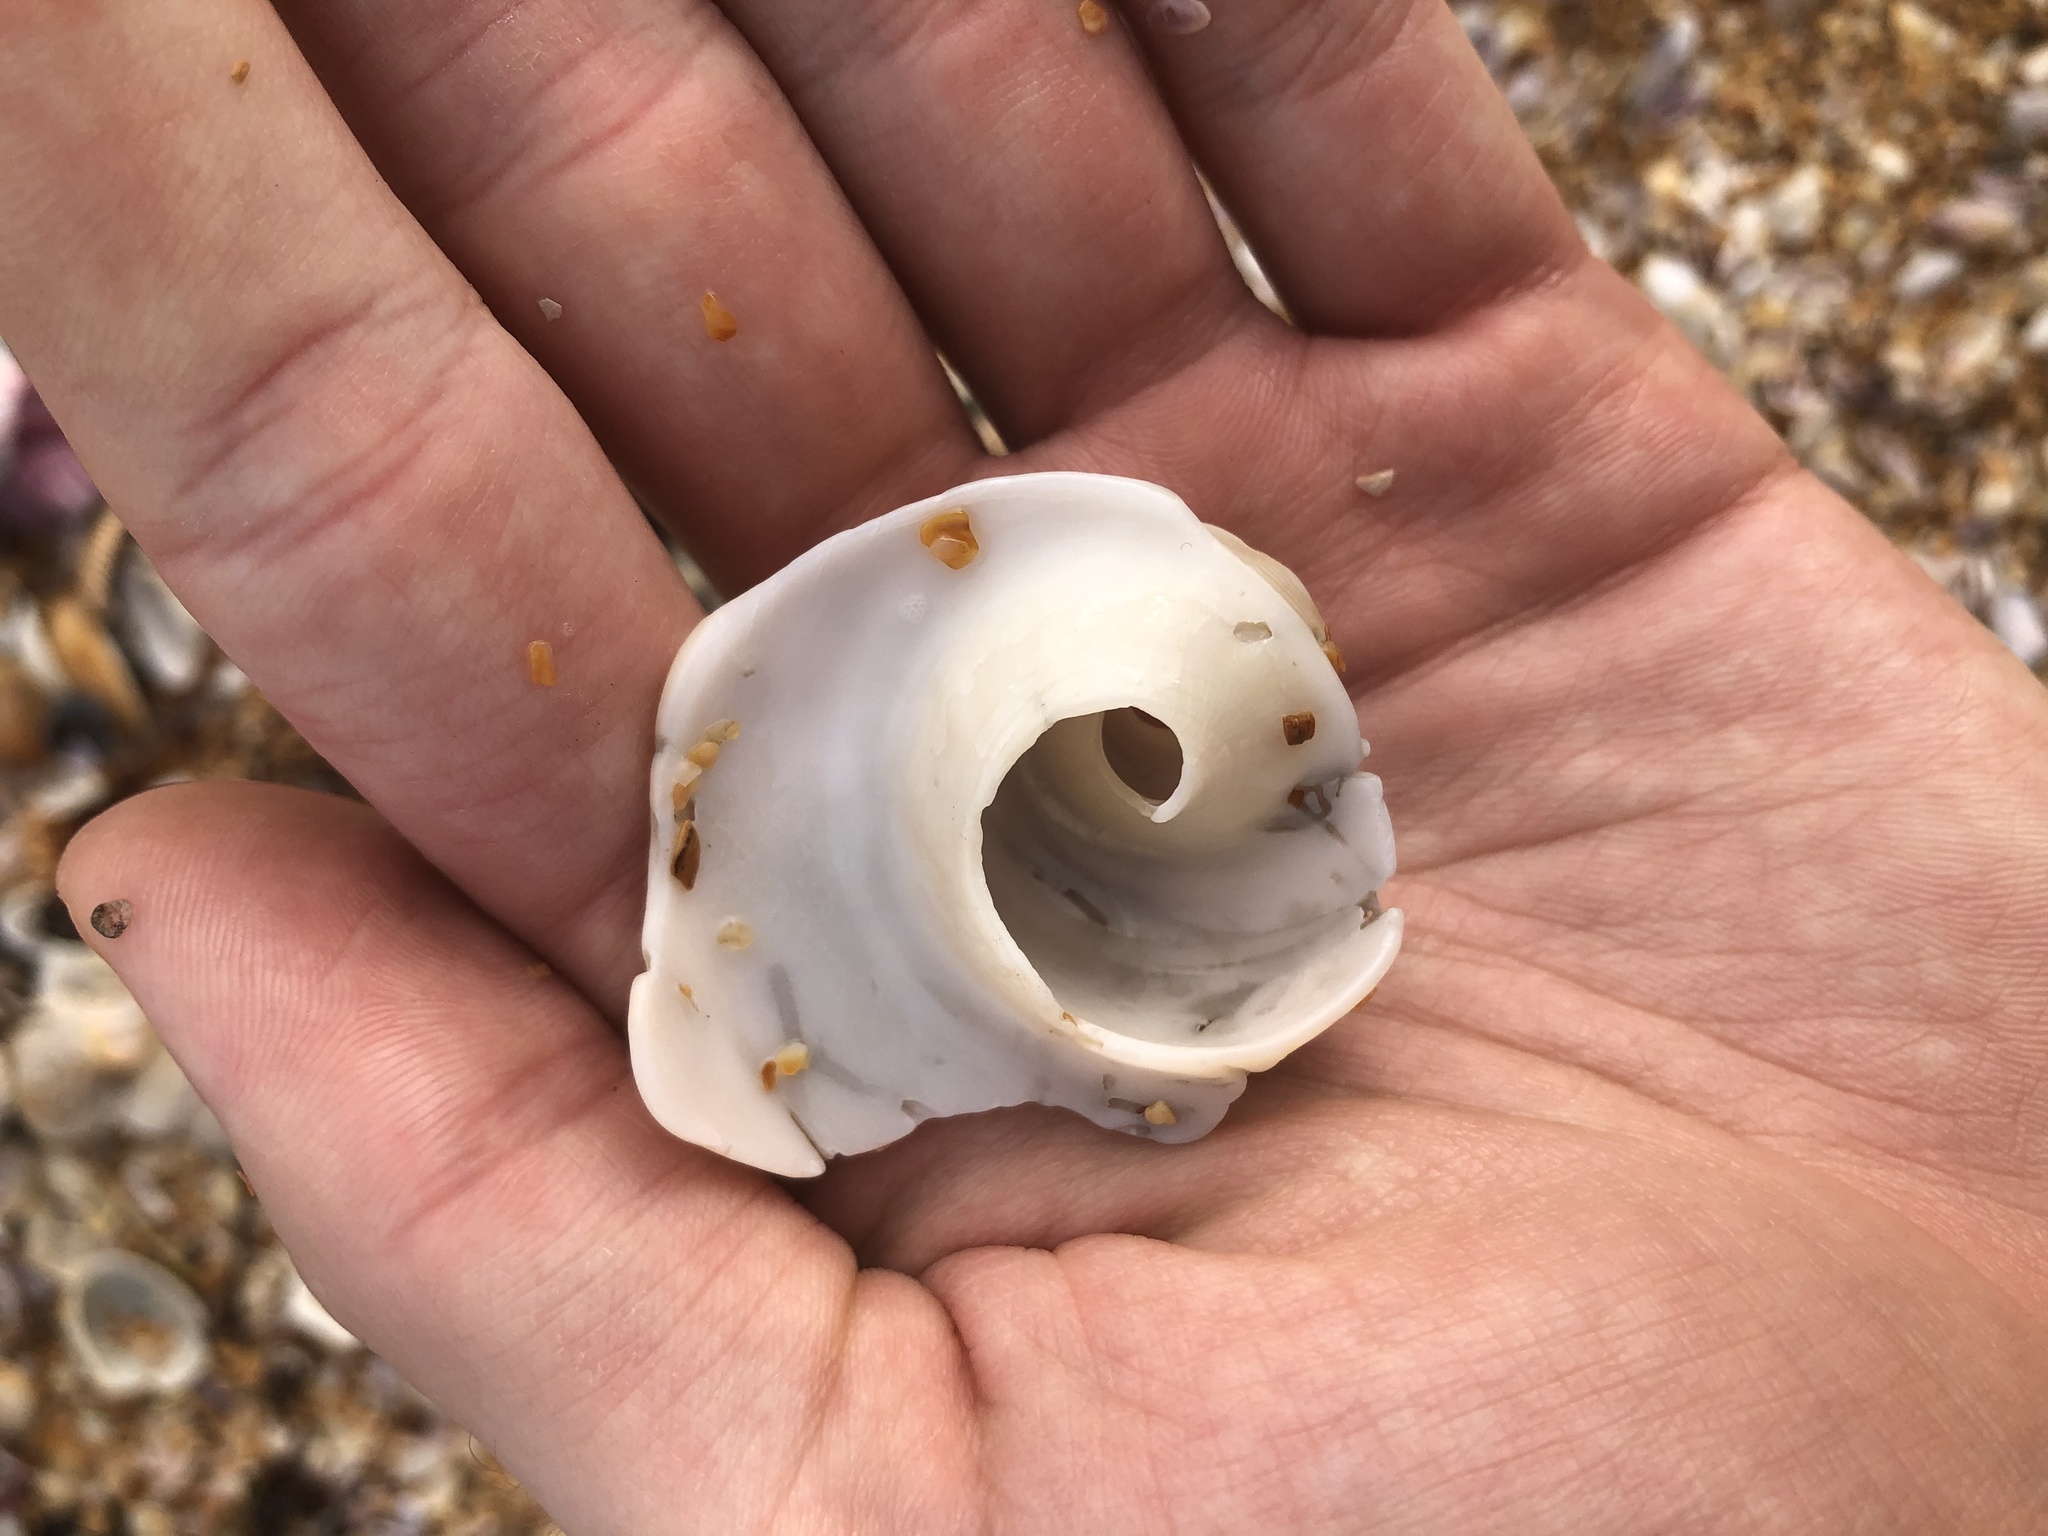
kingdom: Animalia
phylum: Mollusca
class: Gastropoda
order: Neogastropoda
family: Busyconidae
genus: Busycotypus
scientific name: Busycotypus canaliculatus
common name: Channeled whelk
